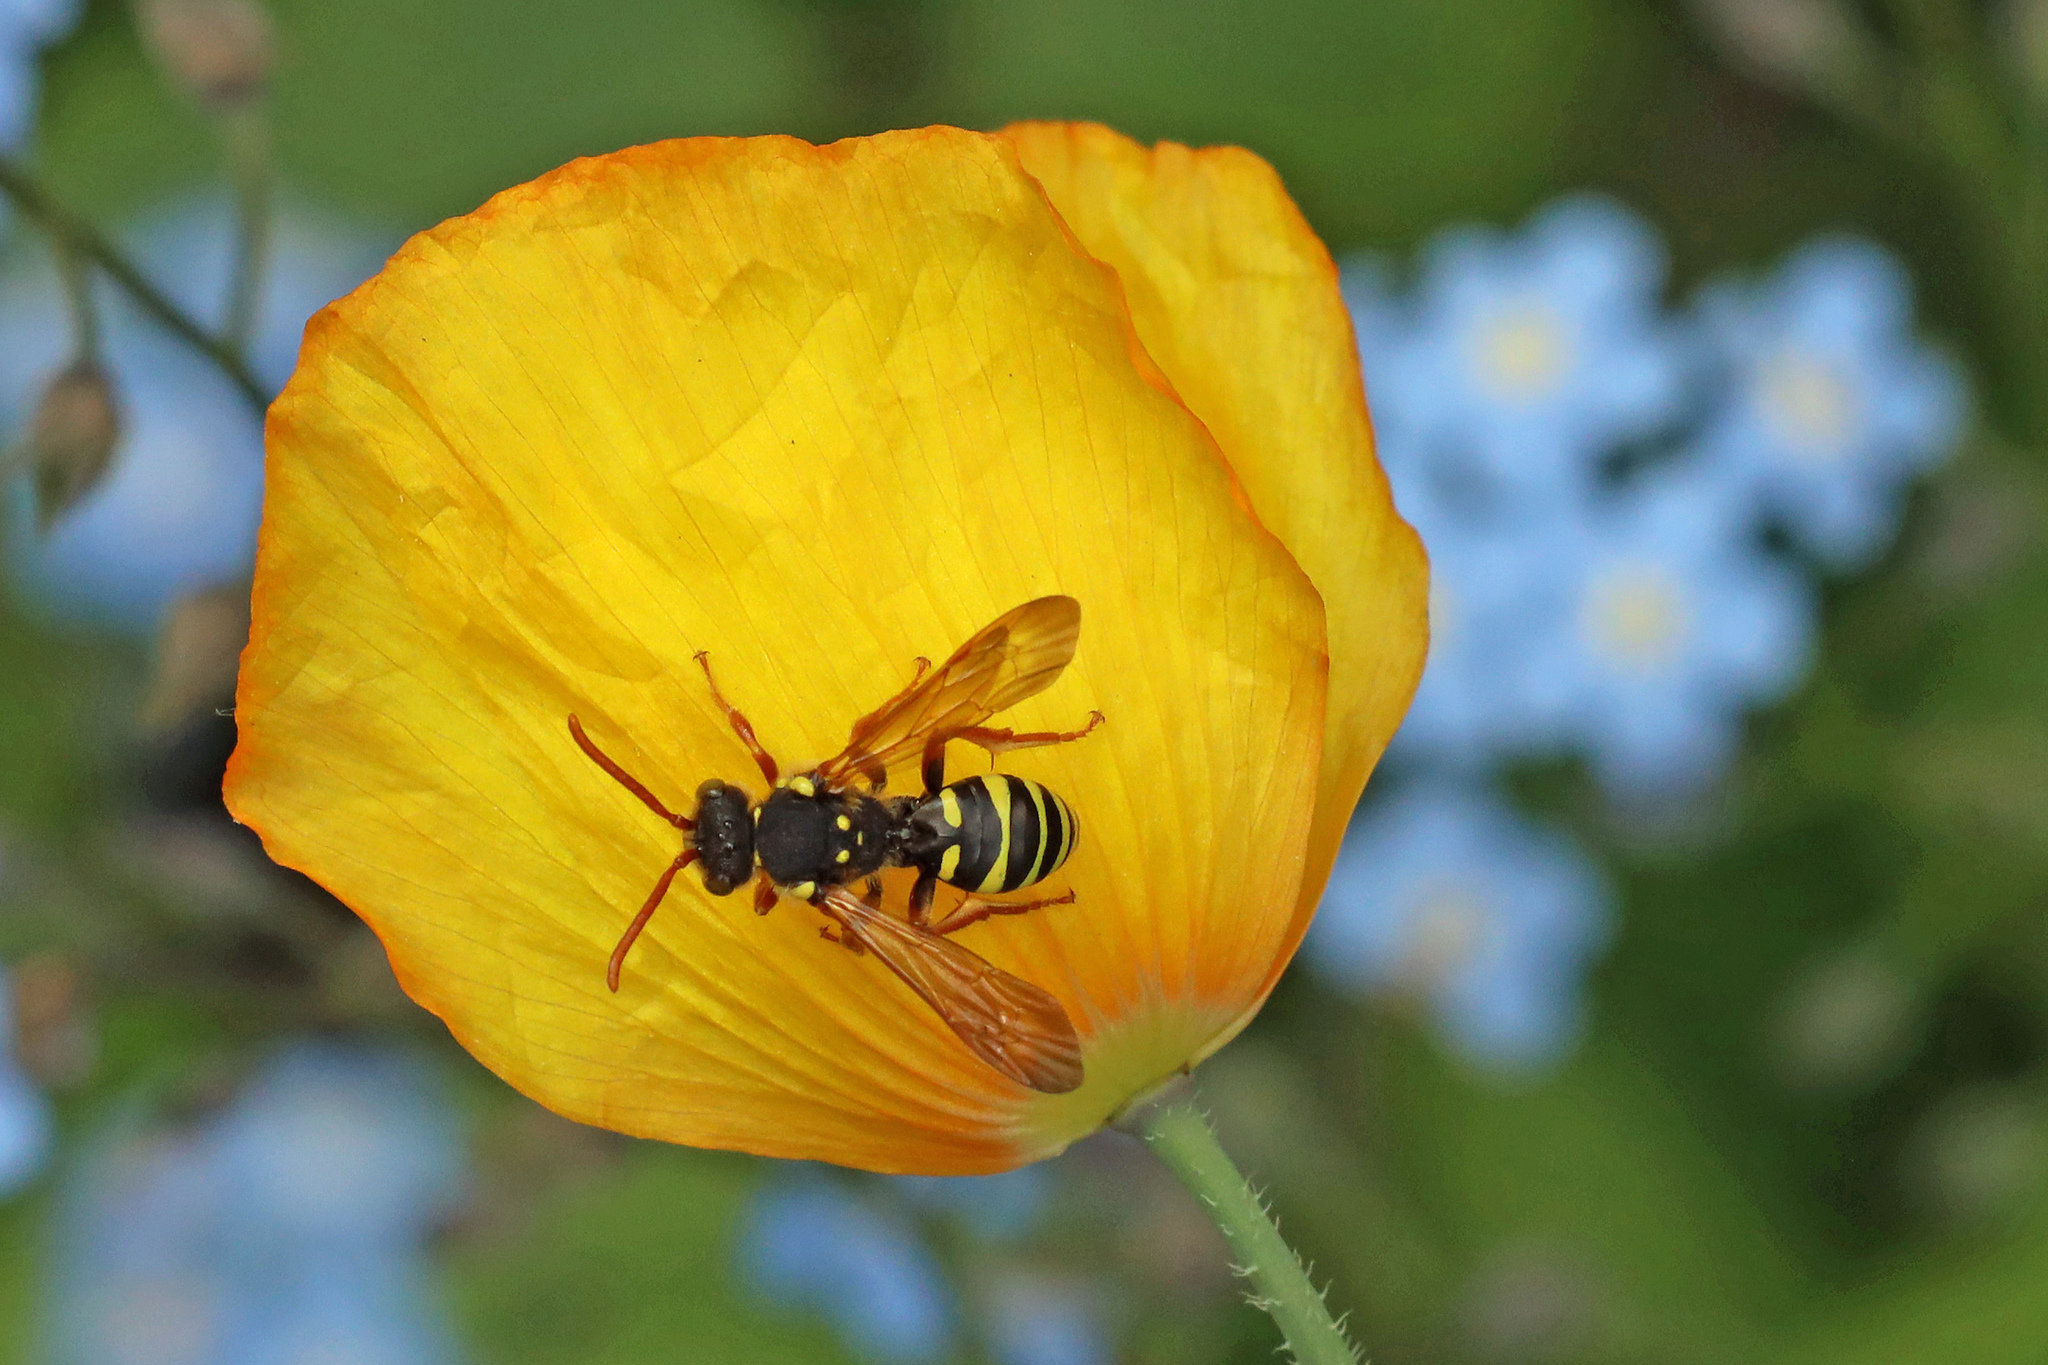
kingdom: Animalia
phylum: Arthropoda
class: Insecta
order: Hymenoptera
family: Apidae
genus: Nomada
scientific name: Nomada goodeniana
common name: Gooden's nomad bee
